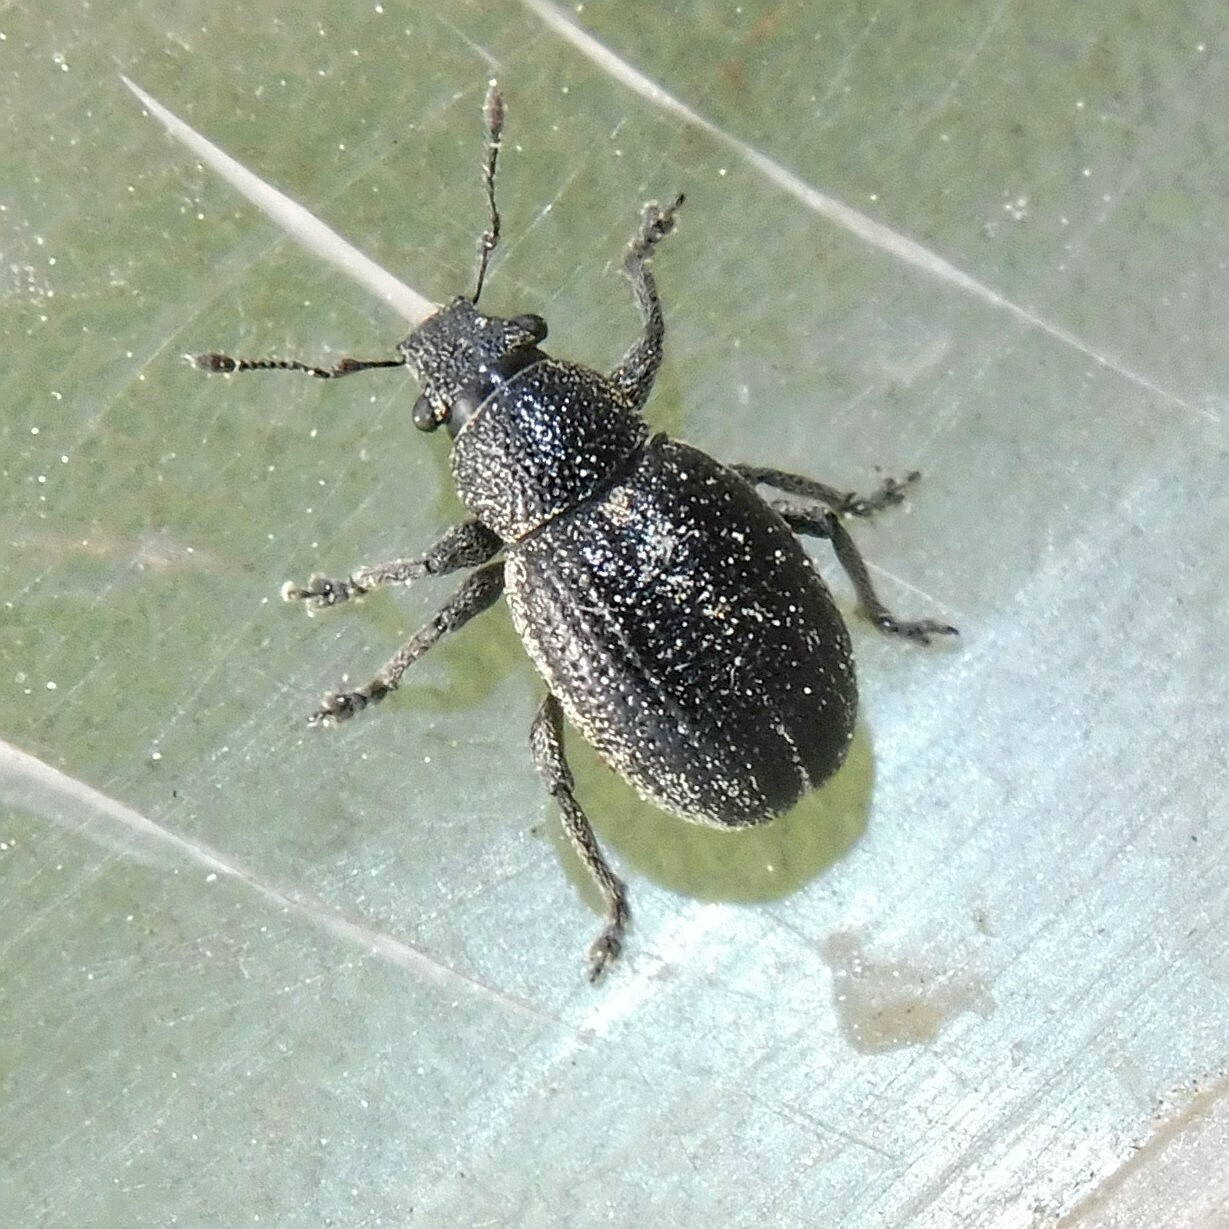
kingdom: Animalia
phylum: Arthropoda
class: Insecta
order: Coleoptera
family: Curculionidae
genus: Strophosoma
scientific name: Strophosoma sus
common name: Heather weevil
